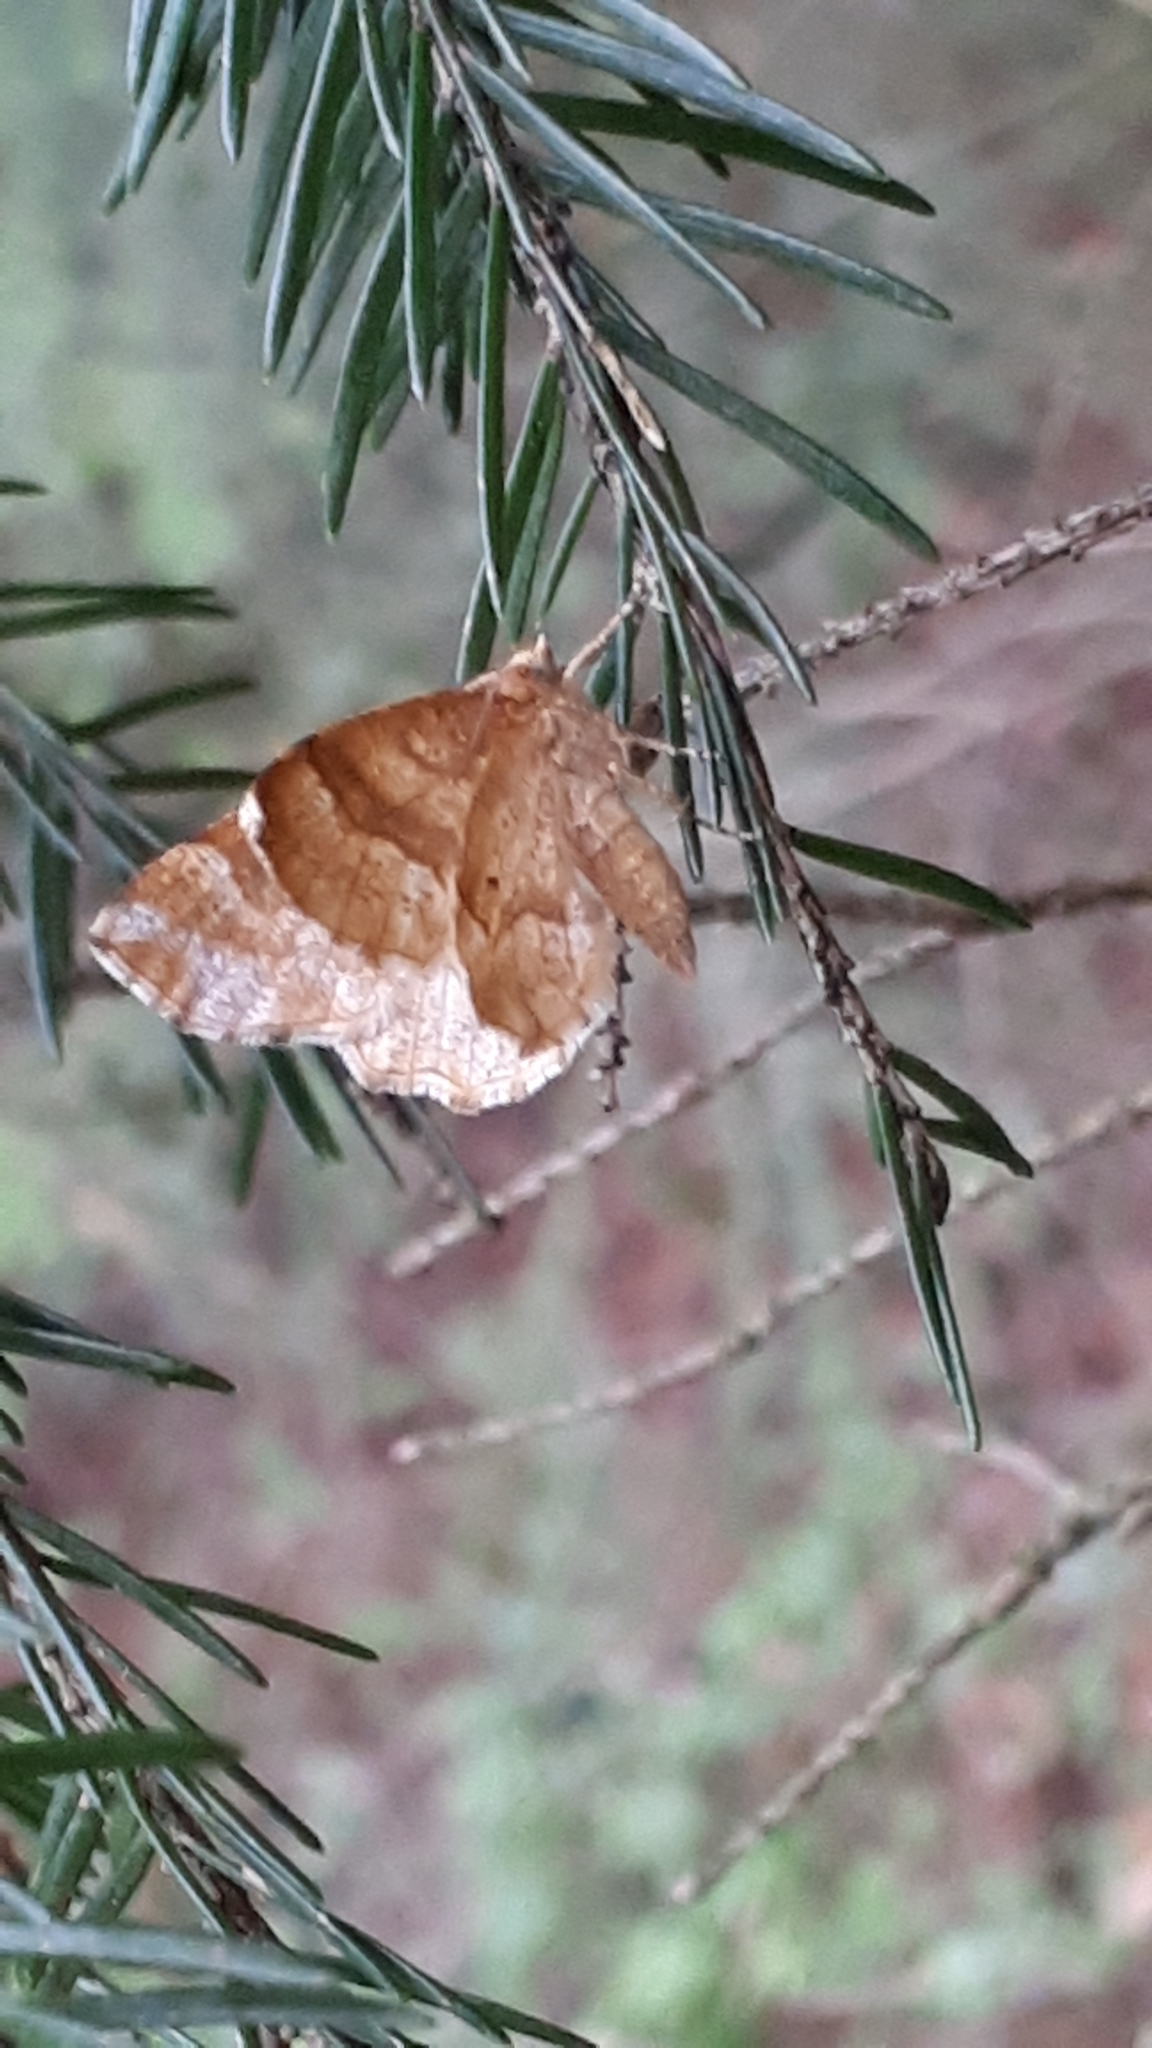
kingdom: Animalia
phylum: Arthropoda
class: Insecta
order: Lepidoptera
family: Geometridae
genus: Cepphis
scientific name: Cepphis advenaria
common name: Little thorn
